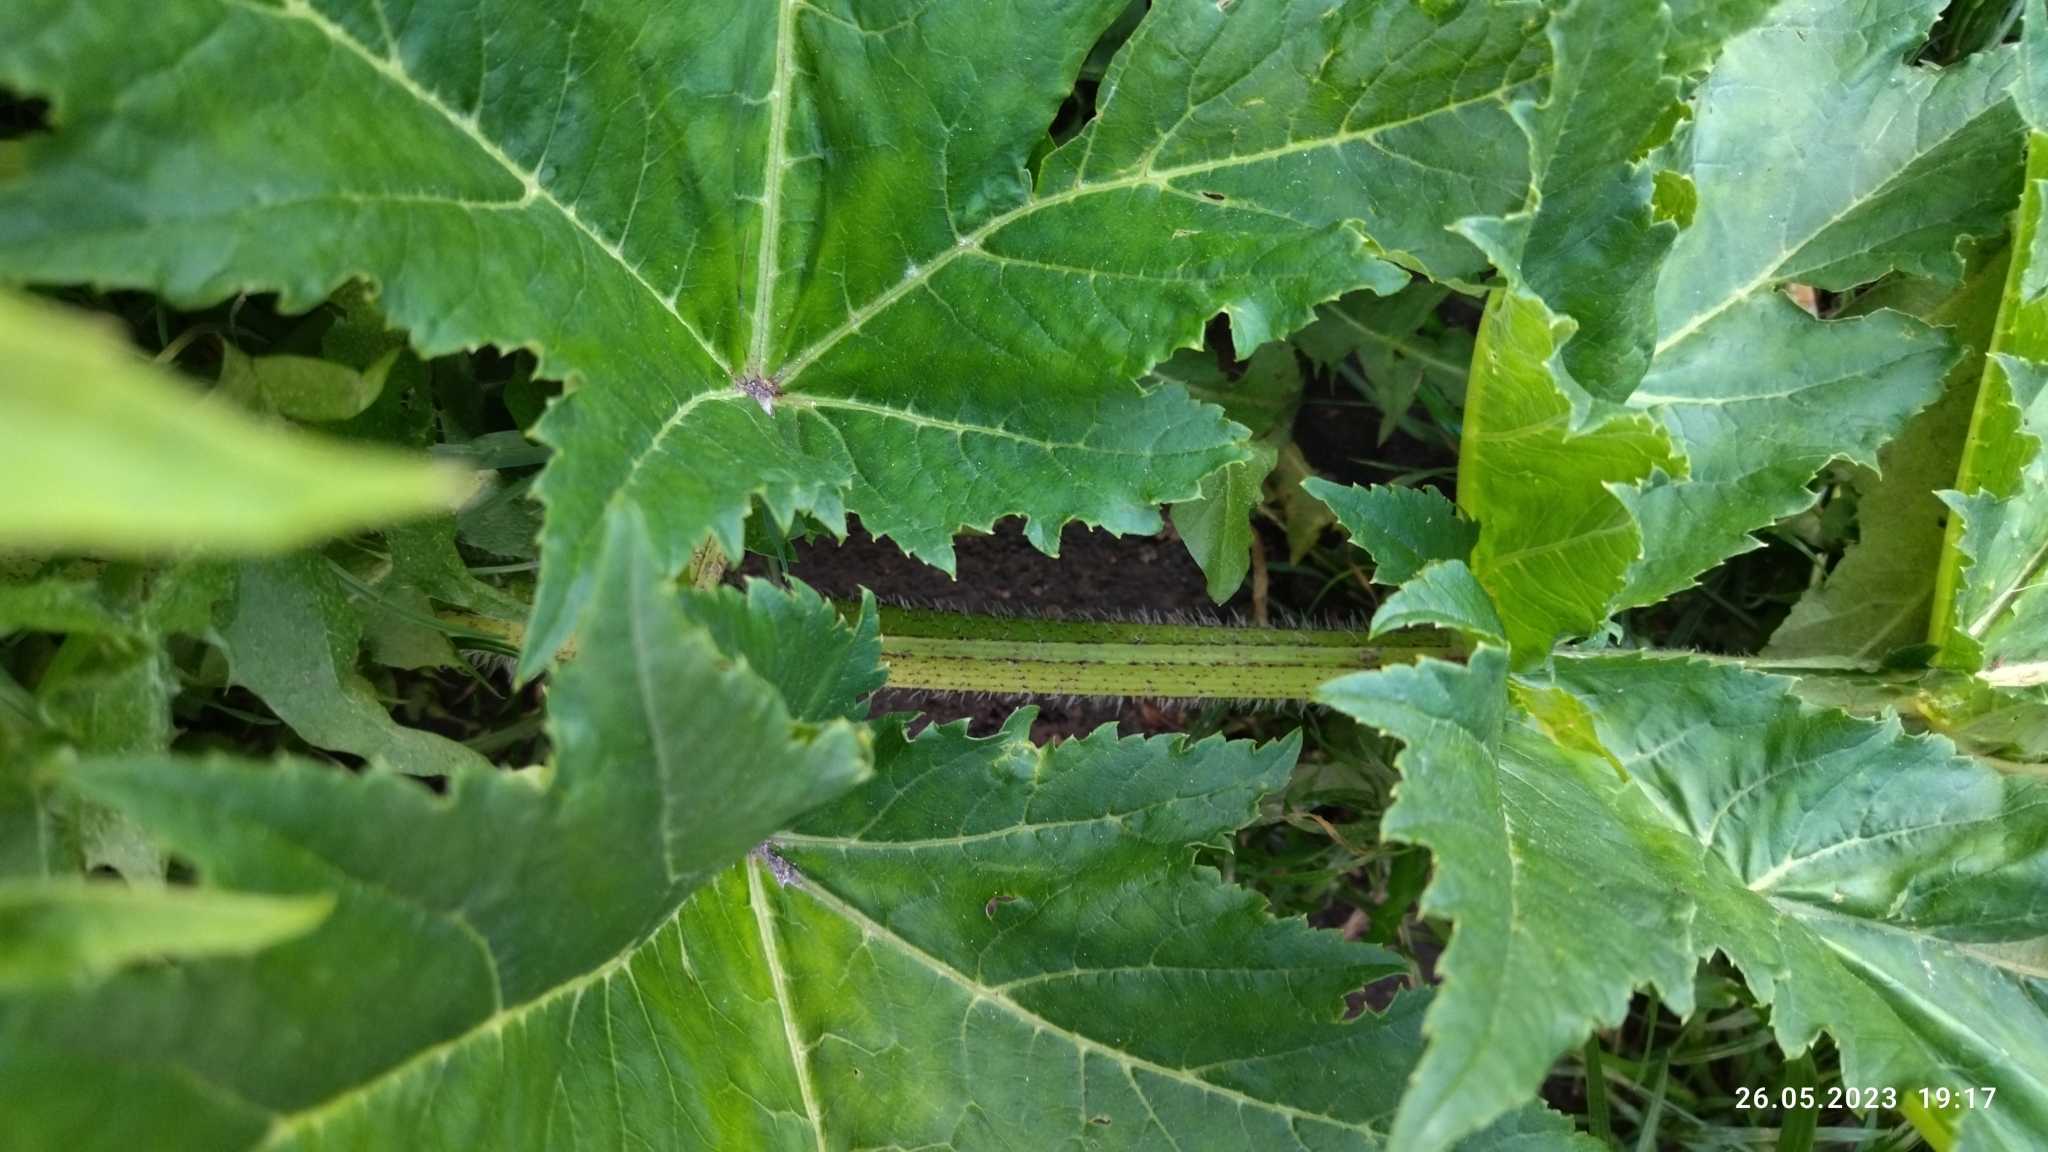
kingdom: Plantae
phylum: Tracheophyta
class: Magnoliopsida
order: Apiales
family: Apiaceae
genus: Heracleum
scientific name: Heracleum sosnowskyi
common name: Sosnowsky's hogweed
